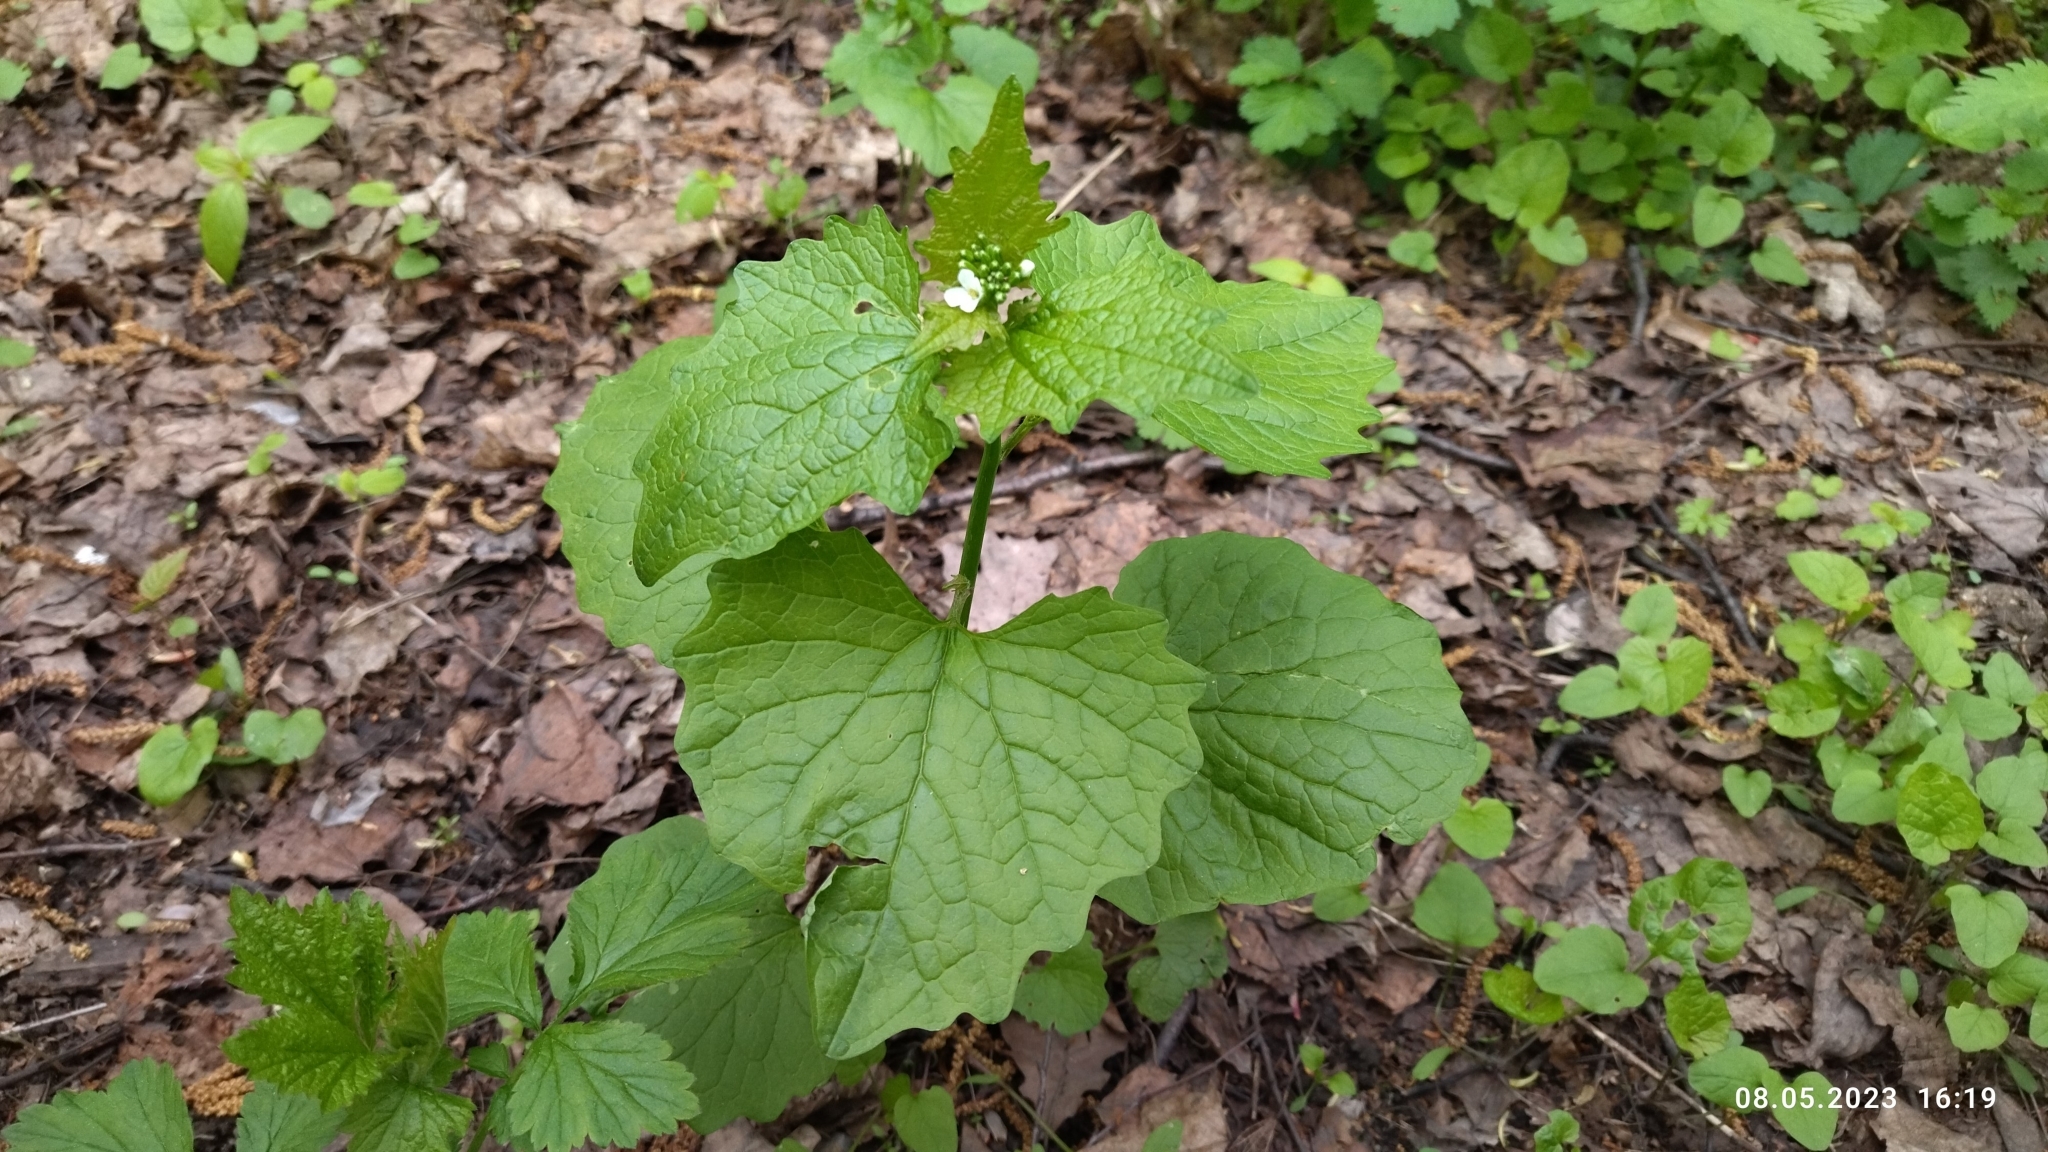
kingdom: Plantae
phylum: Tracheophyta
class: Magnoliopsida
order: Brassicales
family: Brassicaceae
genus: Alliaria
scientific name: Alliaria petiolata
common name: Garlic mustard
